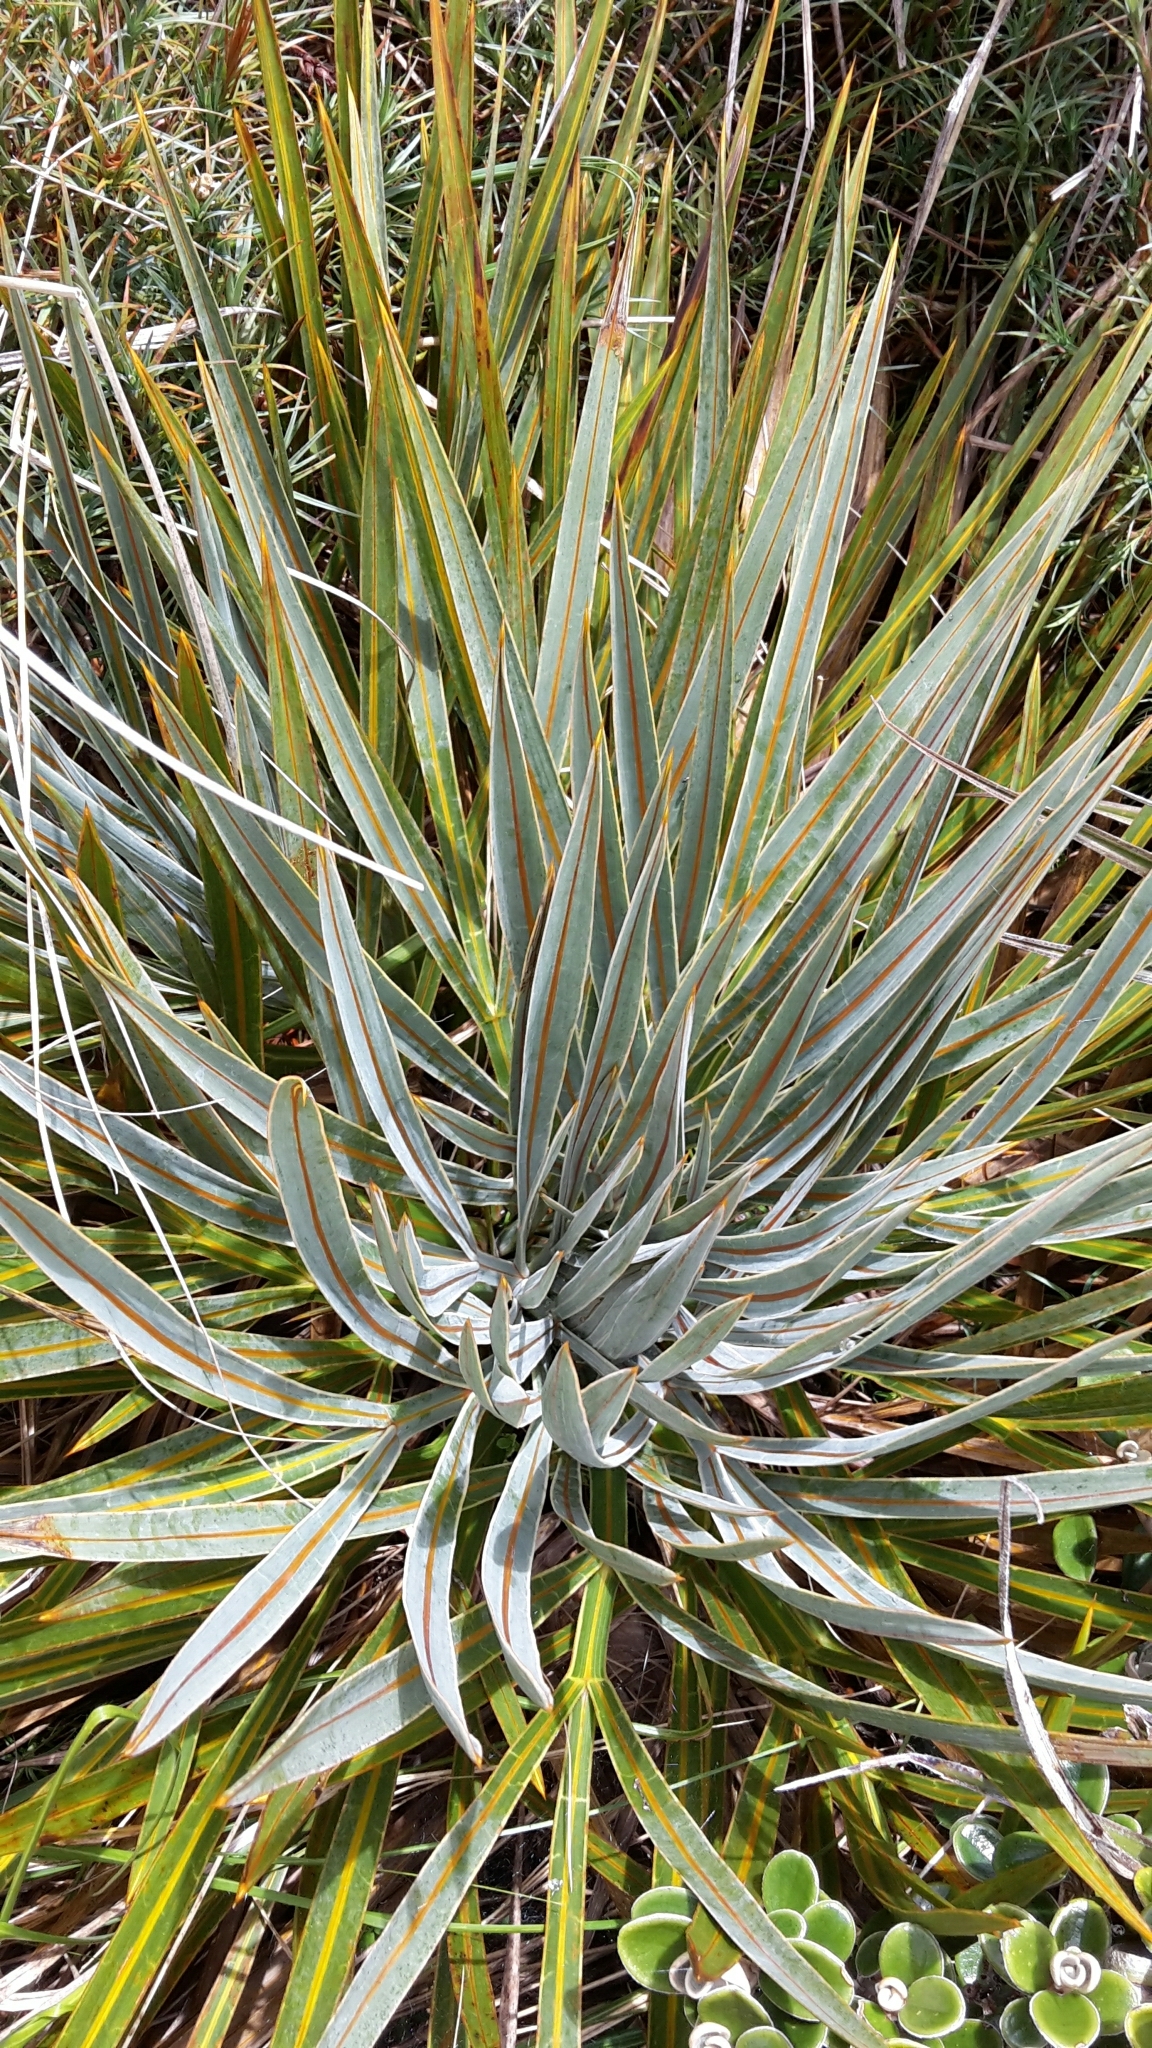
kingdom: Plantae
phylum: Tracheophyta
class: Magnoliopsida
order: Apiales
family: Apiaceae
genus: Aciphylla
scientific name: Aciphylla colensoi
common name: Colenso's spaniard
